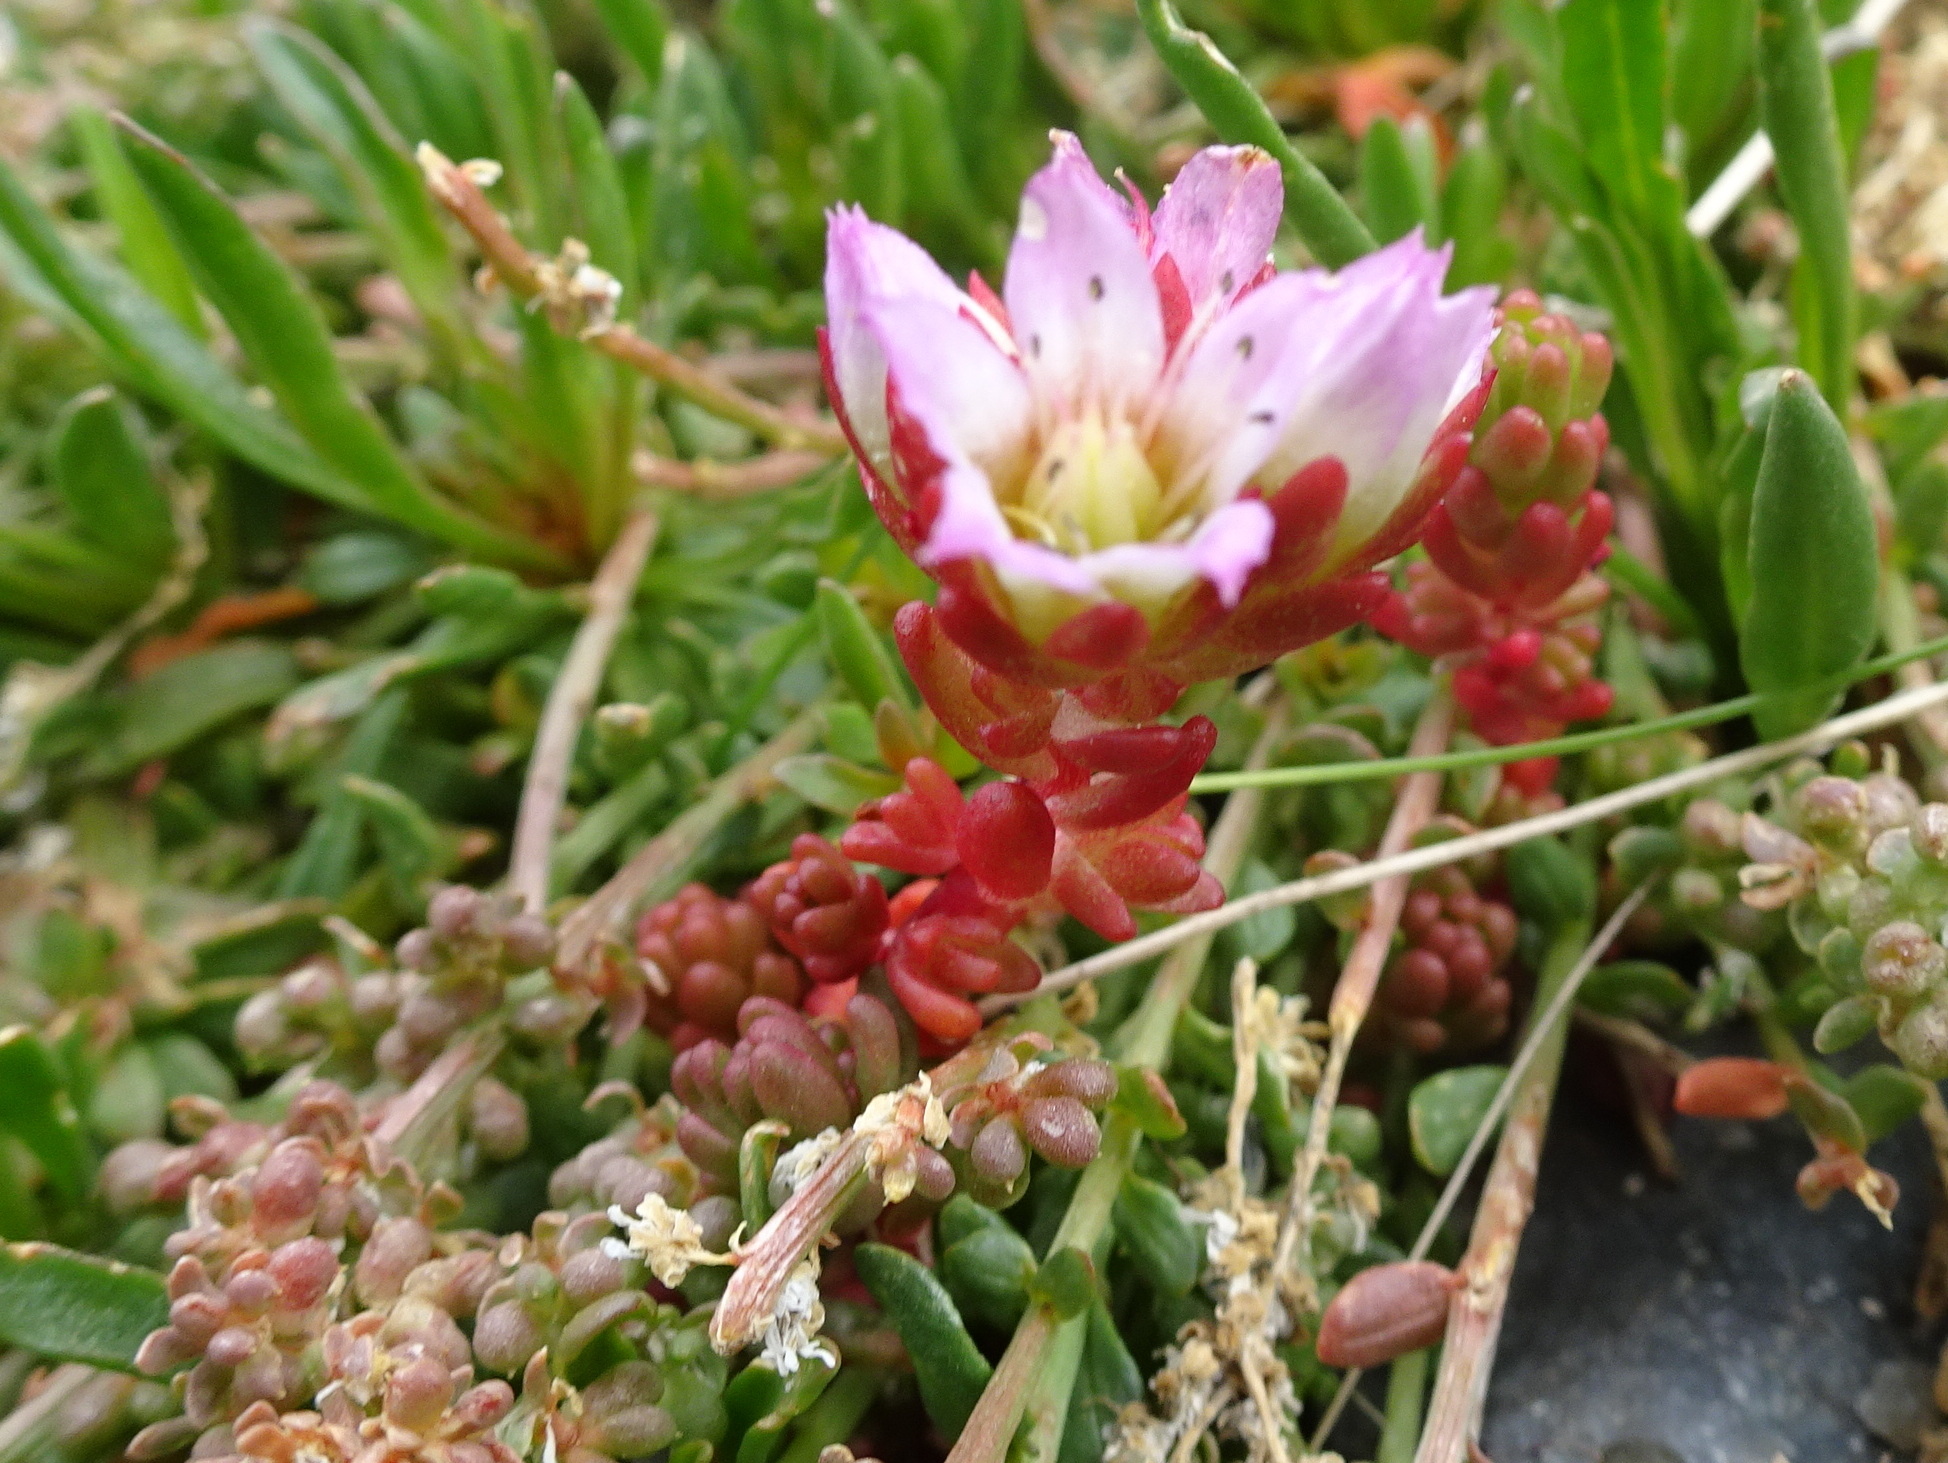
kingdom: Plantae
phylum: Tracheophyta
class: Magnoliopsida
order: Saxifragales
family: Crassulaceae
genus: Sedum
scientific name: Sedum candollei
